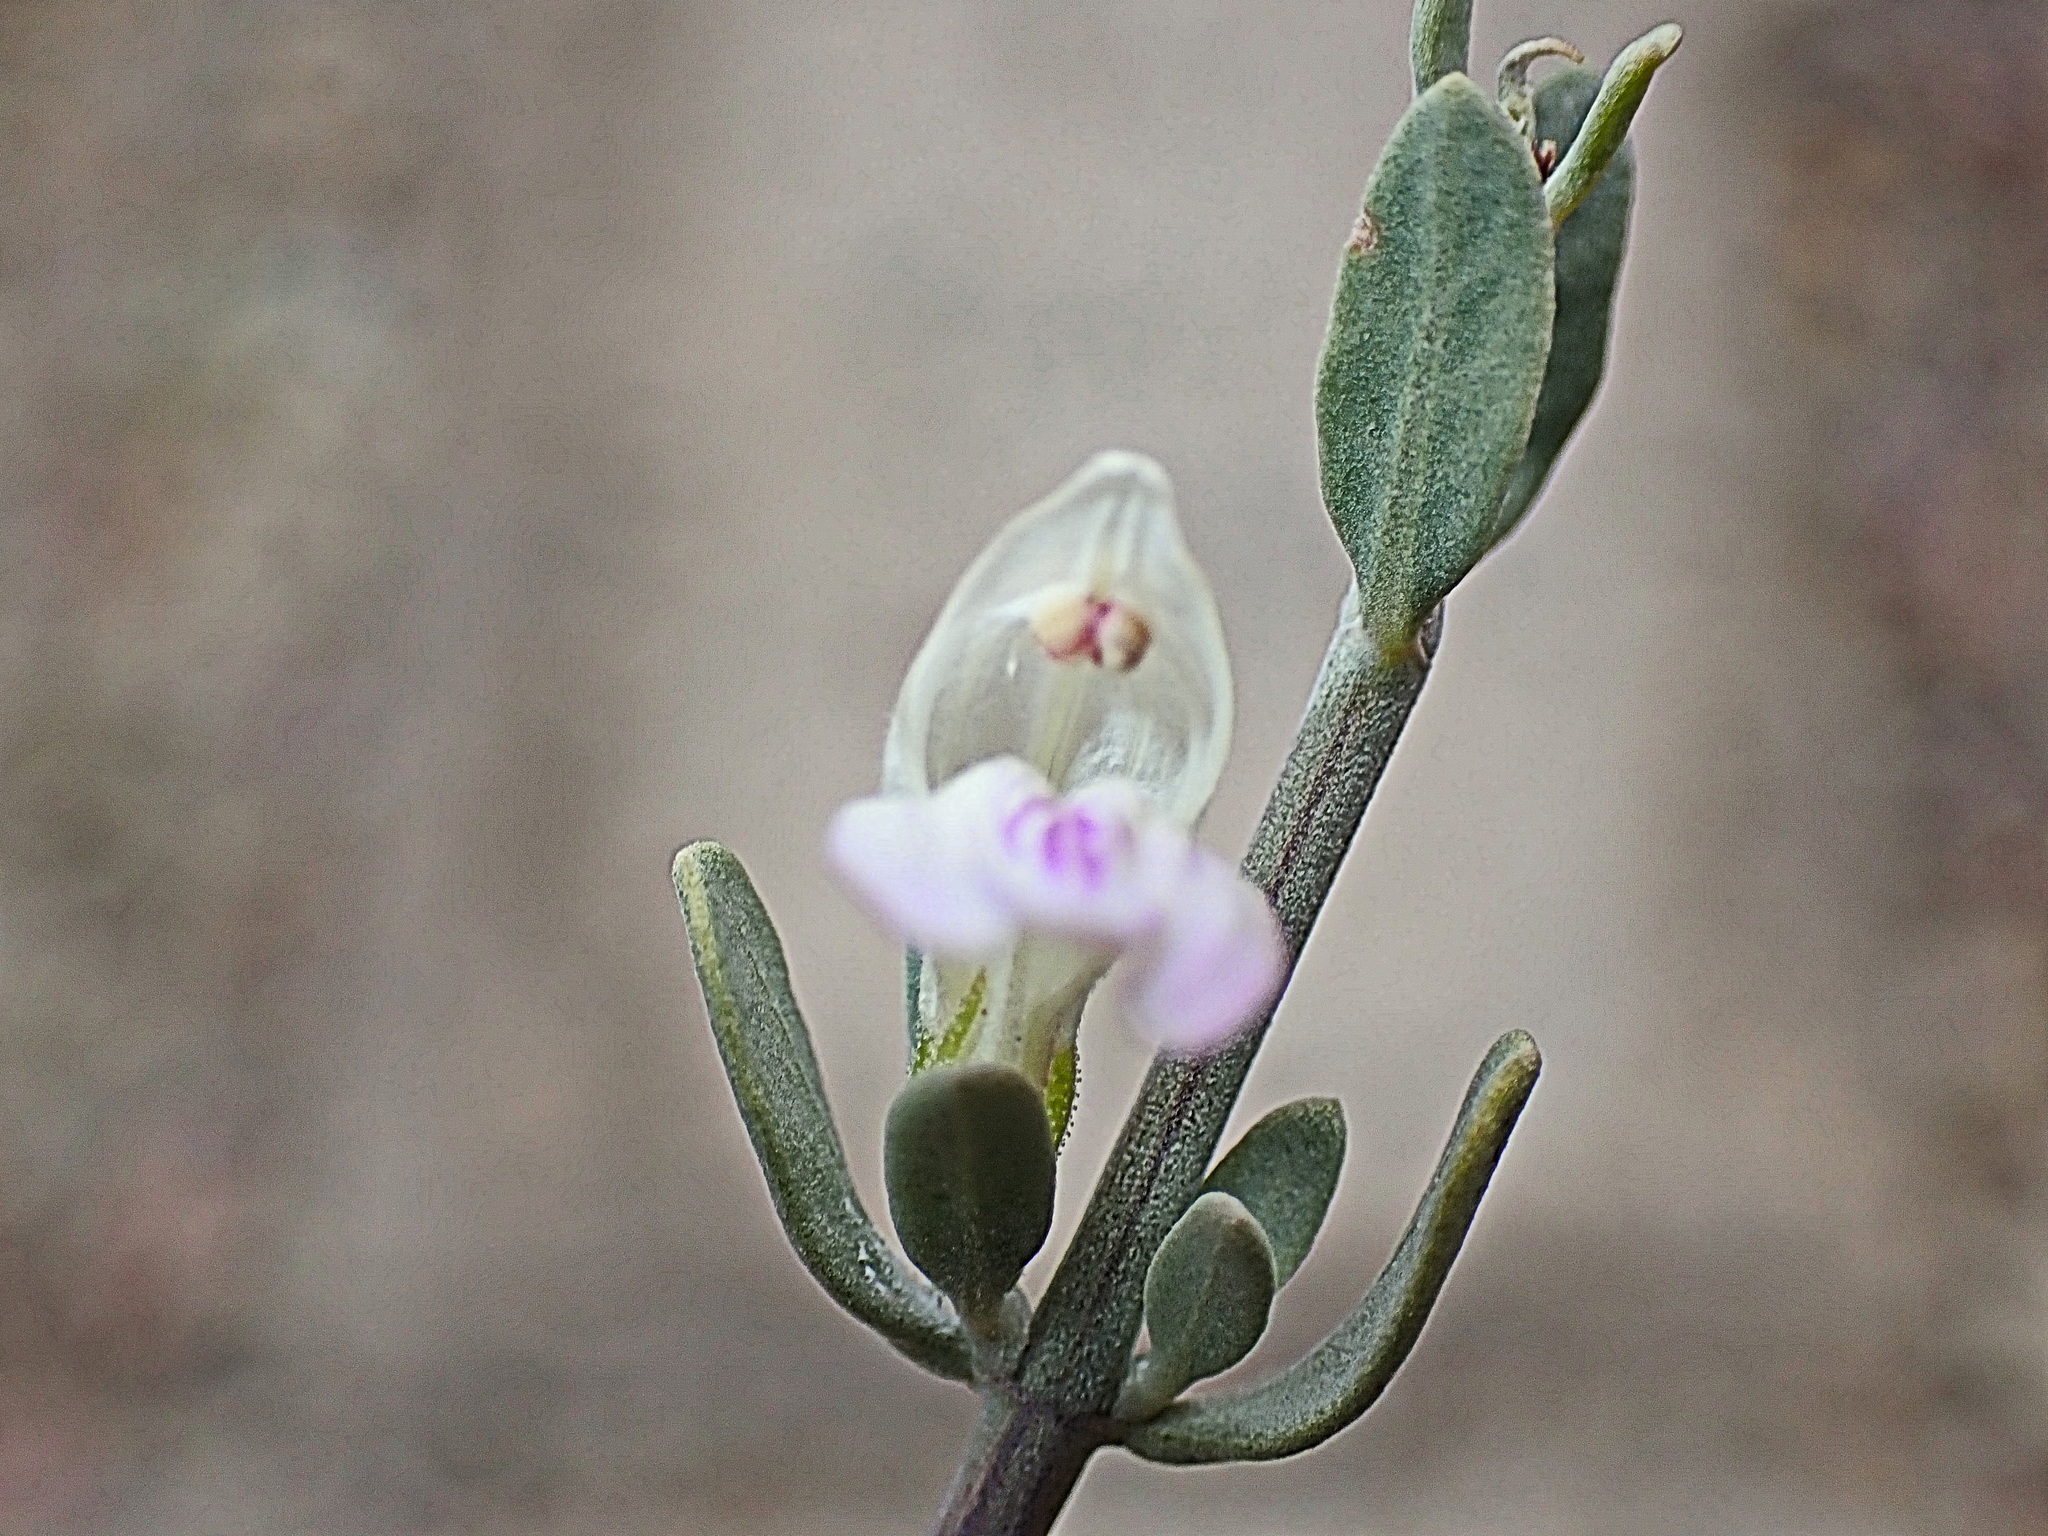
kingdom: Plantae
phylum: Tracheophyta
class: Magnoliopsida
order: Lamiales
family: Acanthaceae
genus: Pogonospermum
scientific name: Pogonospermum
